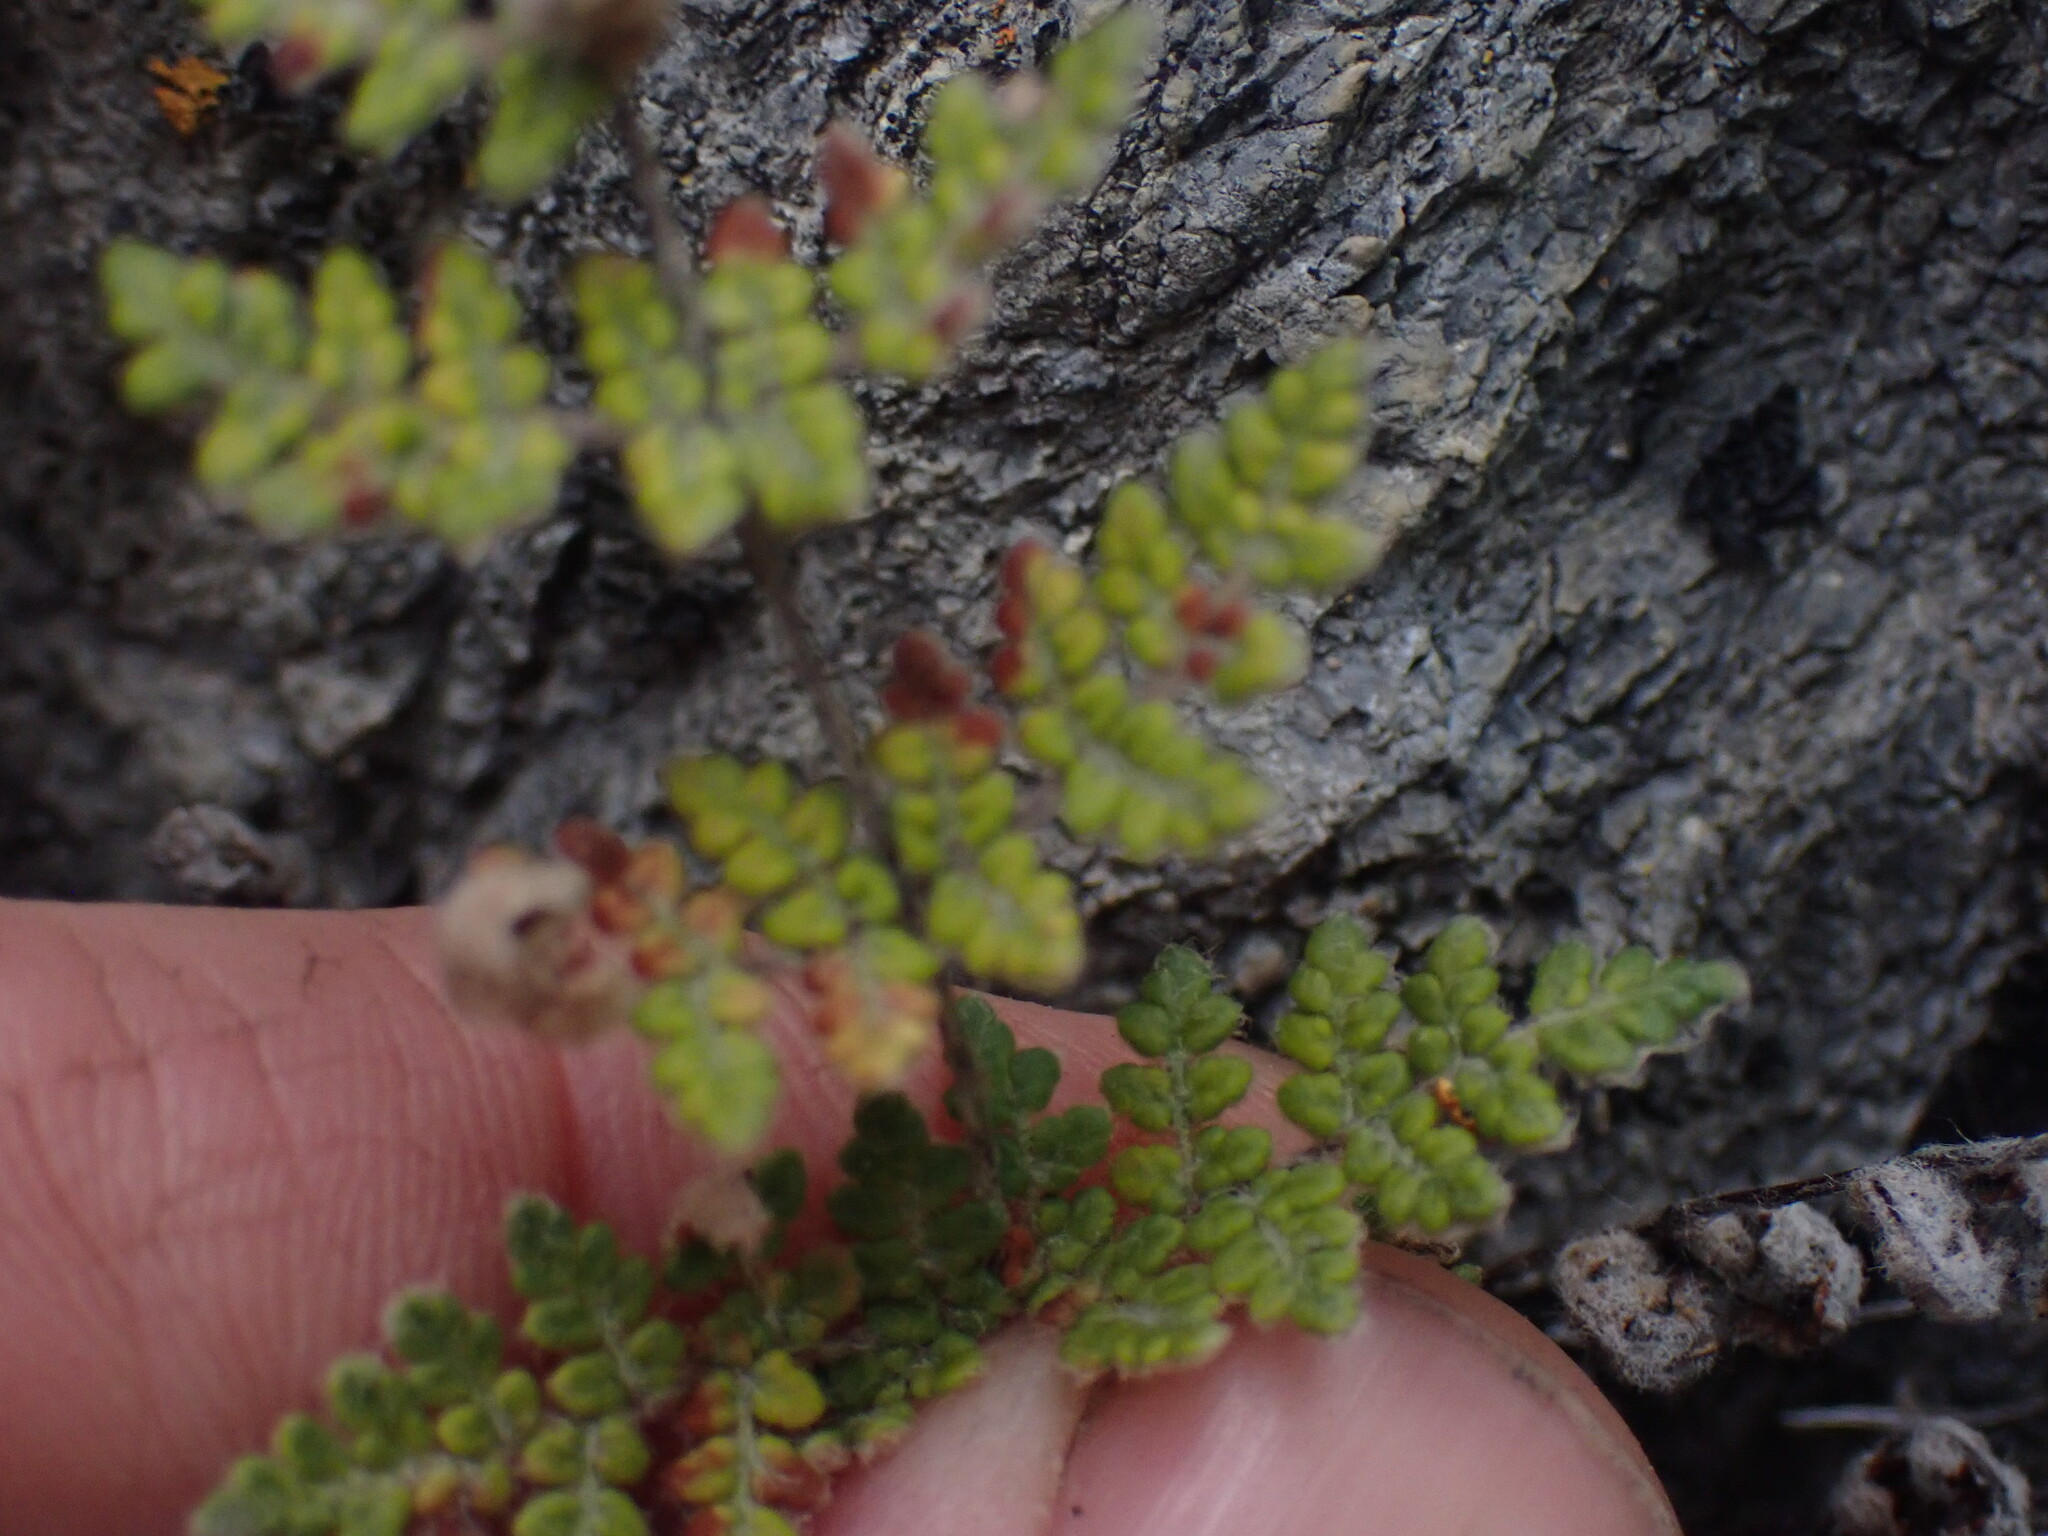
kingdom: Plantae
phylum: Tracheophyta
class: Polypodiopsida
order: Polypodiales
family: Pteridaceae
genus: Myriopteris
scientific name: Myriopteris gracilis
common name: Fee's lip fern
